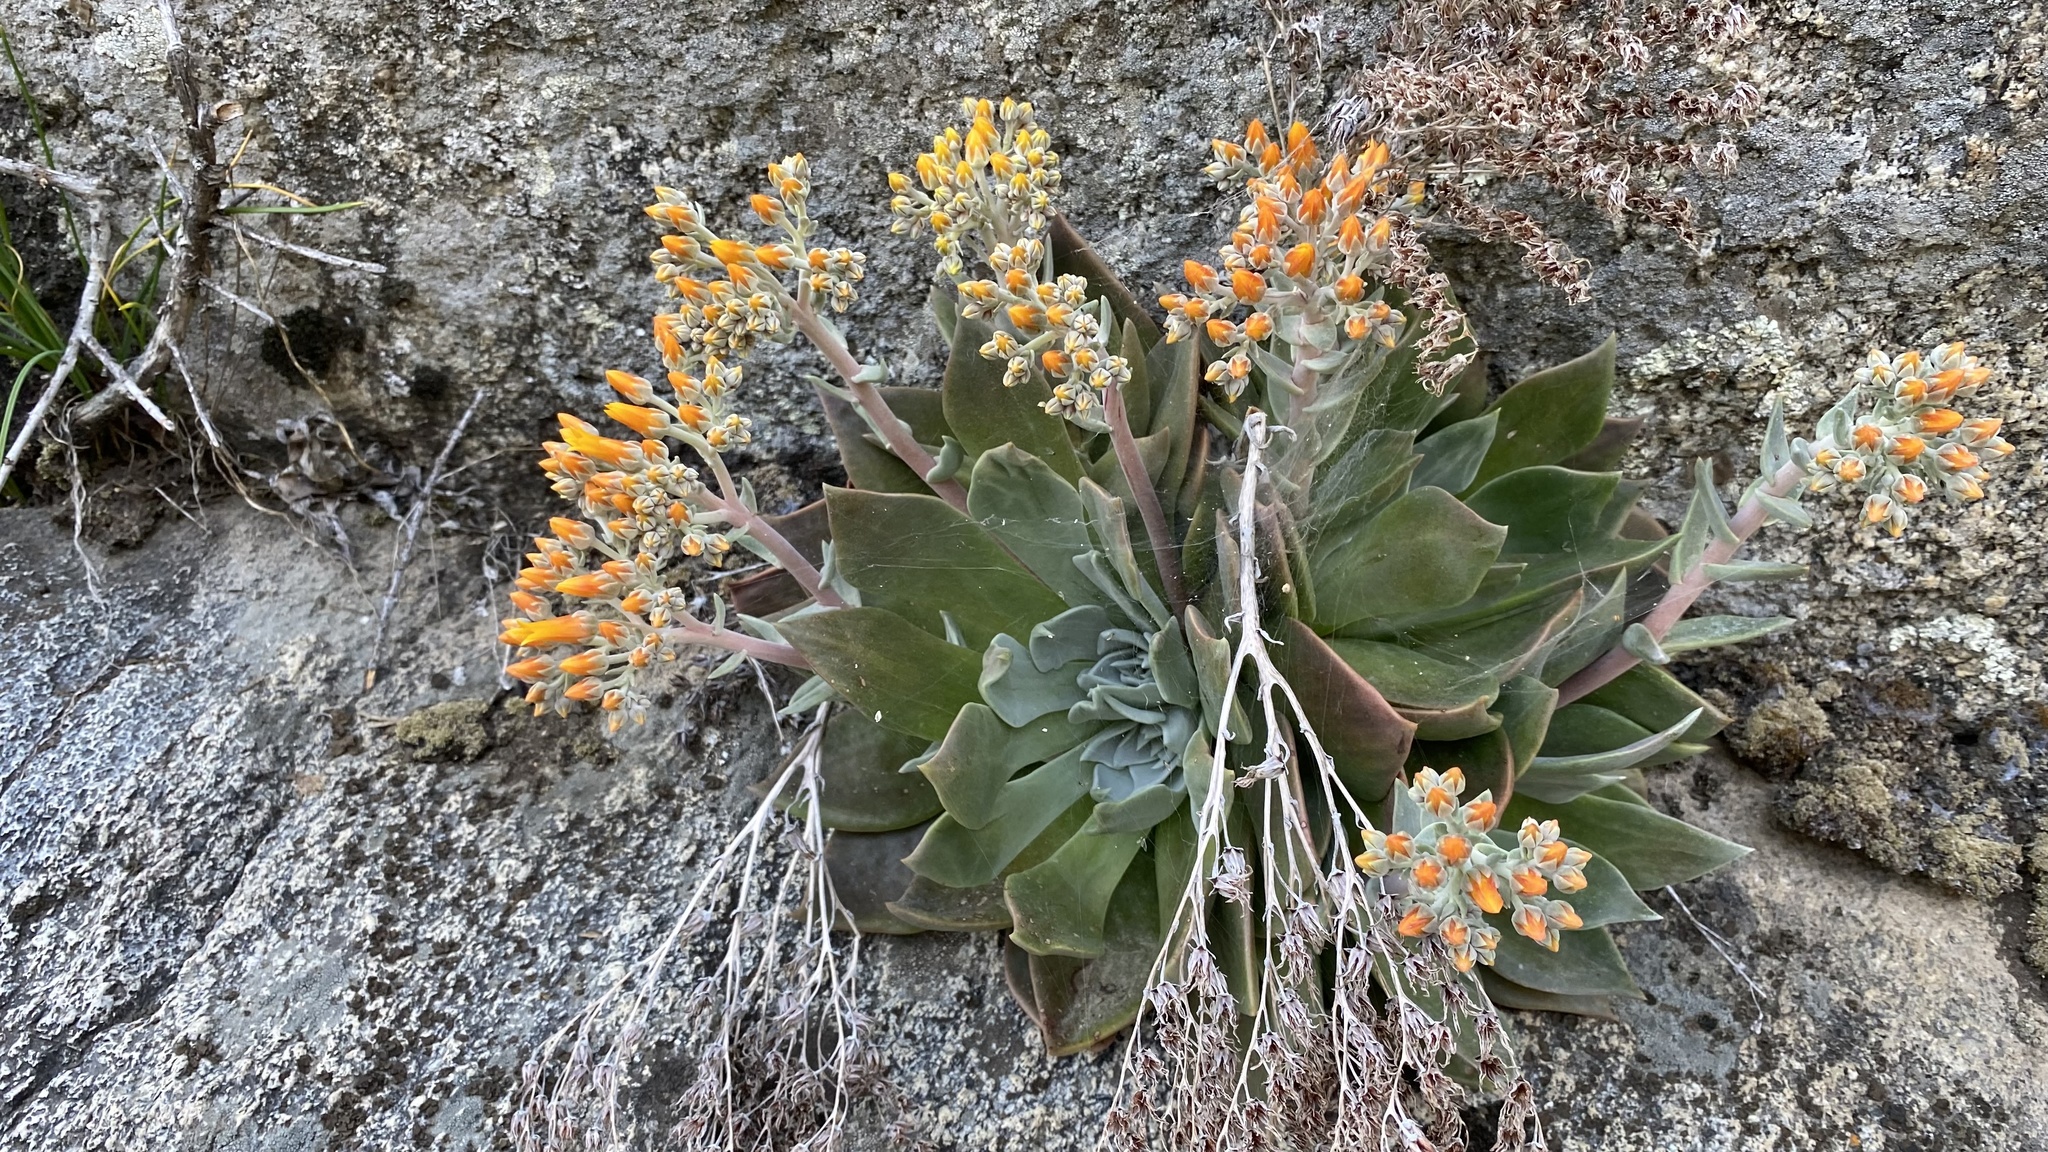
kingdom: Plantae
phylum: Tracheophyta
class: Magnoliopsida
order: Saxifragales
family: Crassulaceae
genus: Dudleya
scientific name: Dudleya cymosa
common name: Canyon dudleya
